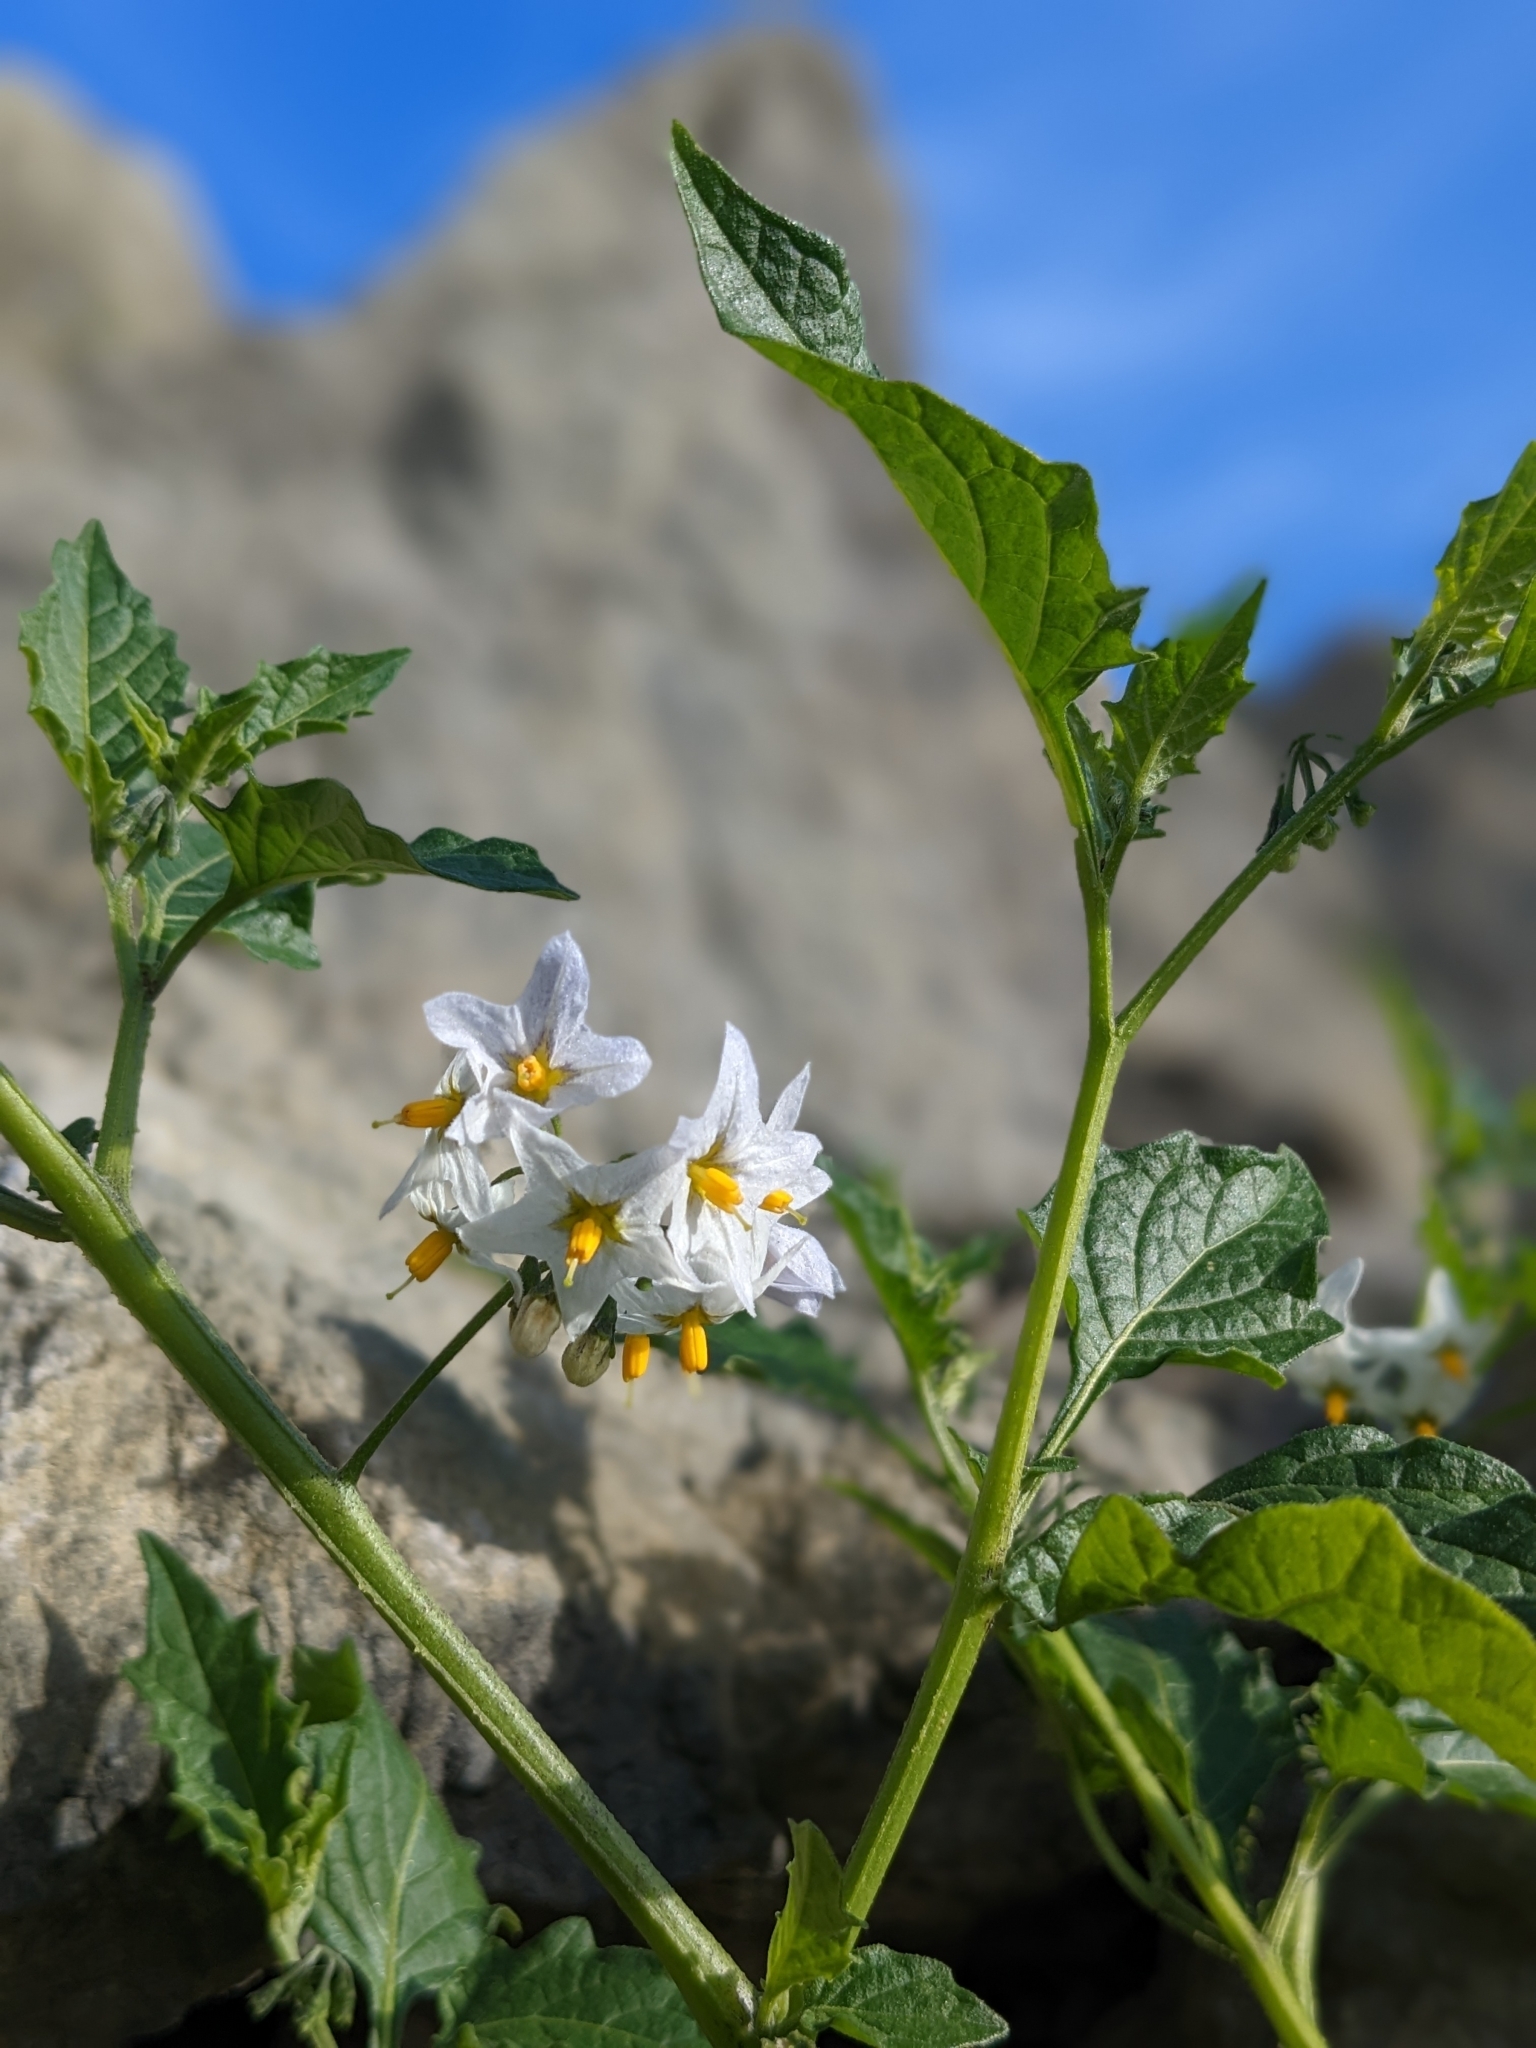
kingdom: Plantae
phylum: Tracheophyta
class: Magnoliopsida
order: Solanales
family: Solanaceae
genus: Solanum
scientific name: Solanum furcatum
